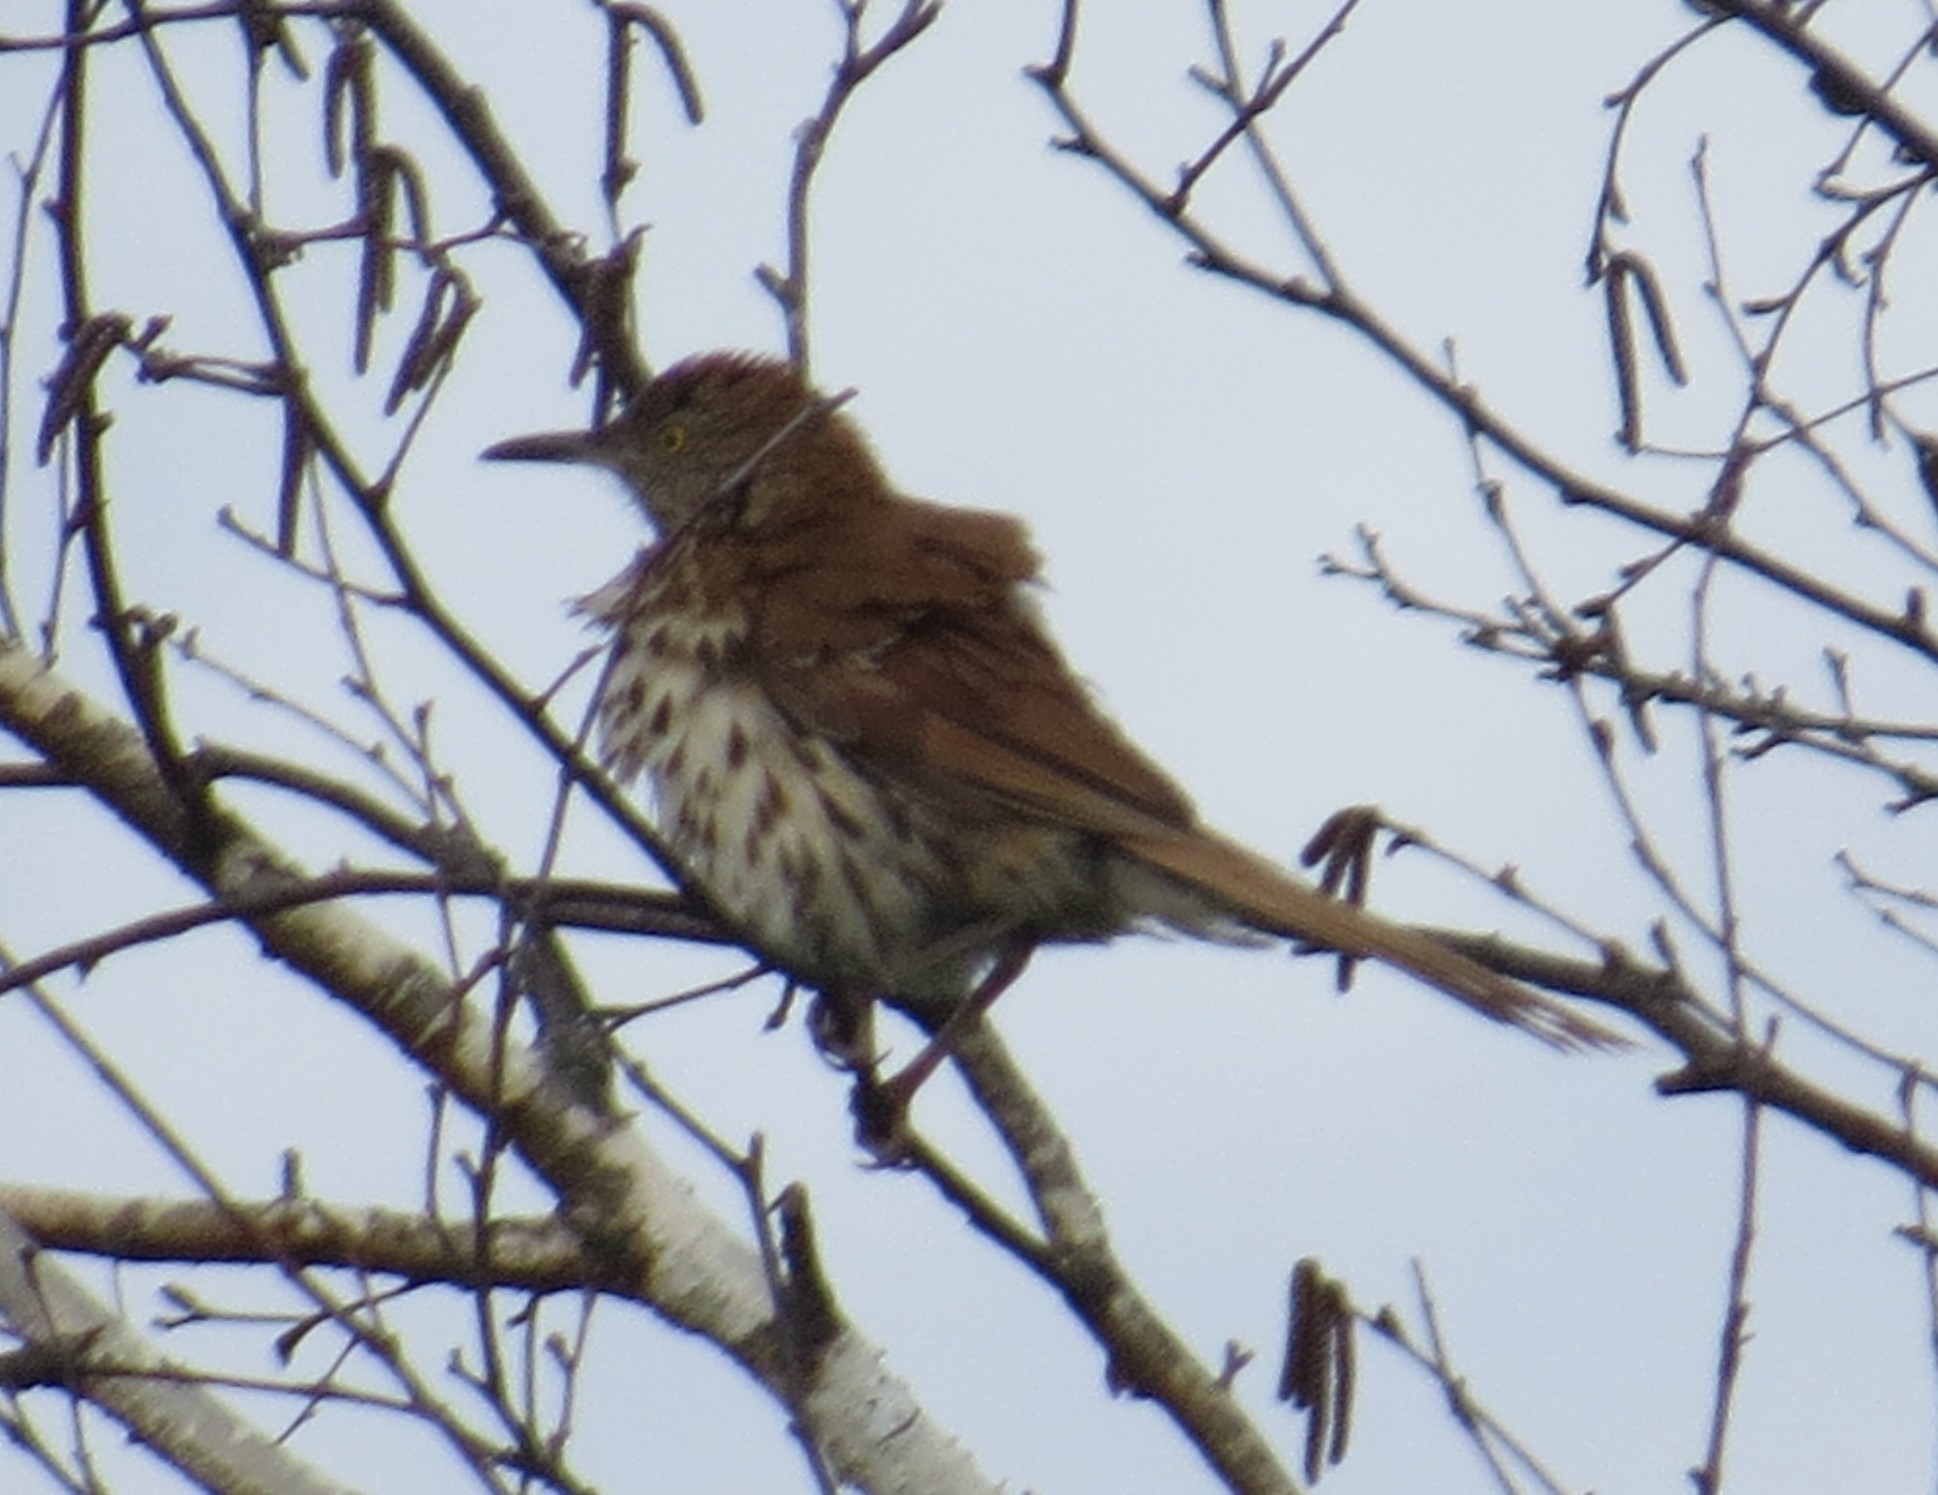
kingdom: Animalia
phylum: Chordata
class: Aves
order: Passeriformes
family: Mimidae
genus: Toxostoma
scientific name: Toxostoma rufum
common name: Brown thrasher
